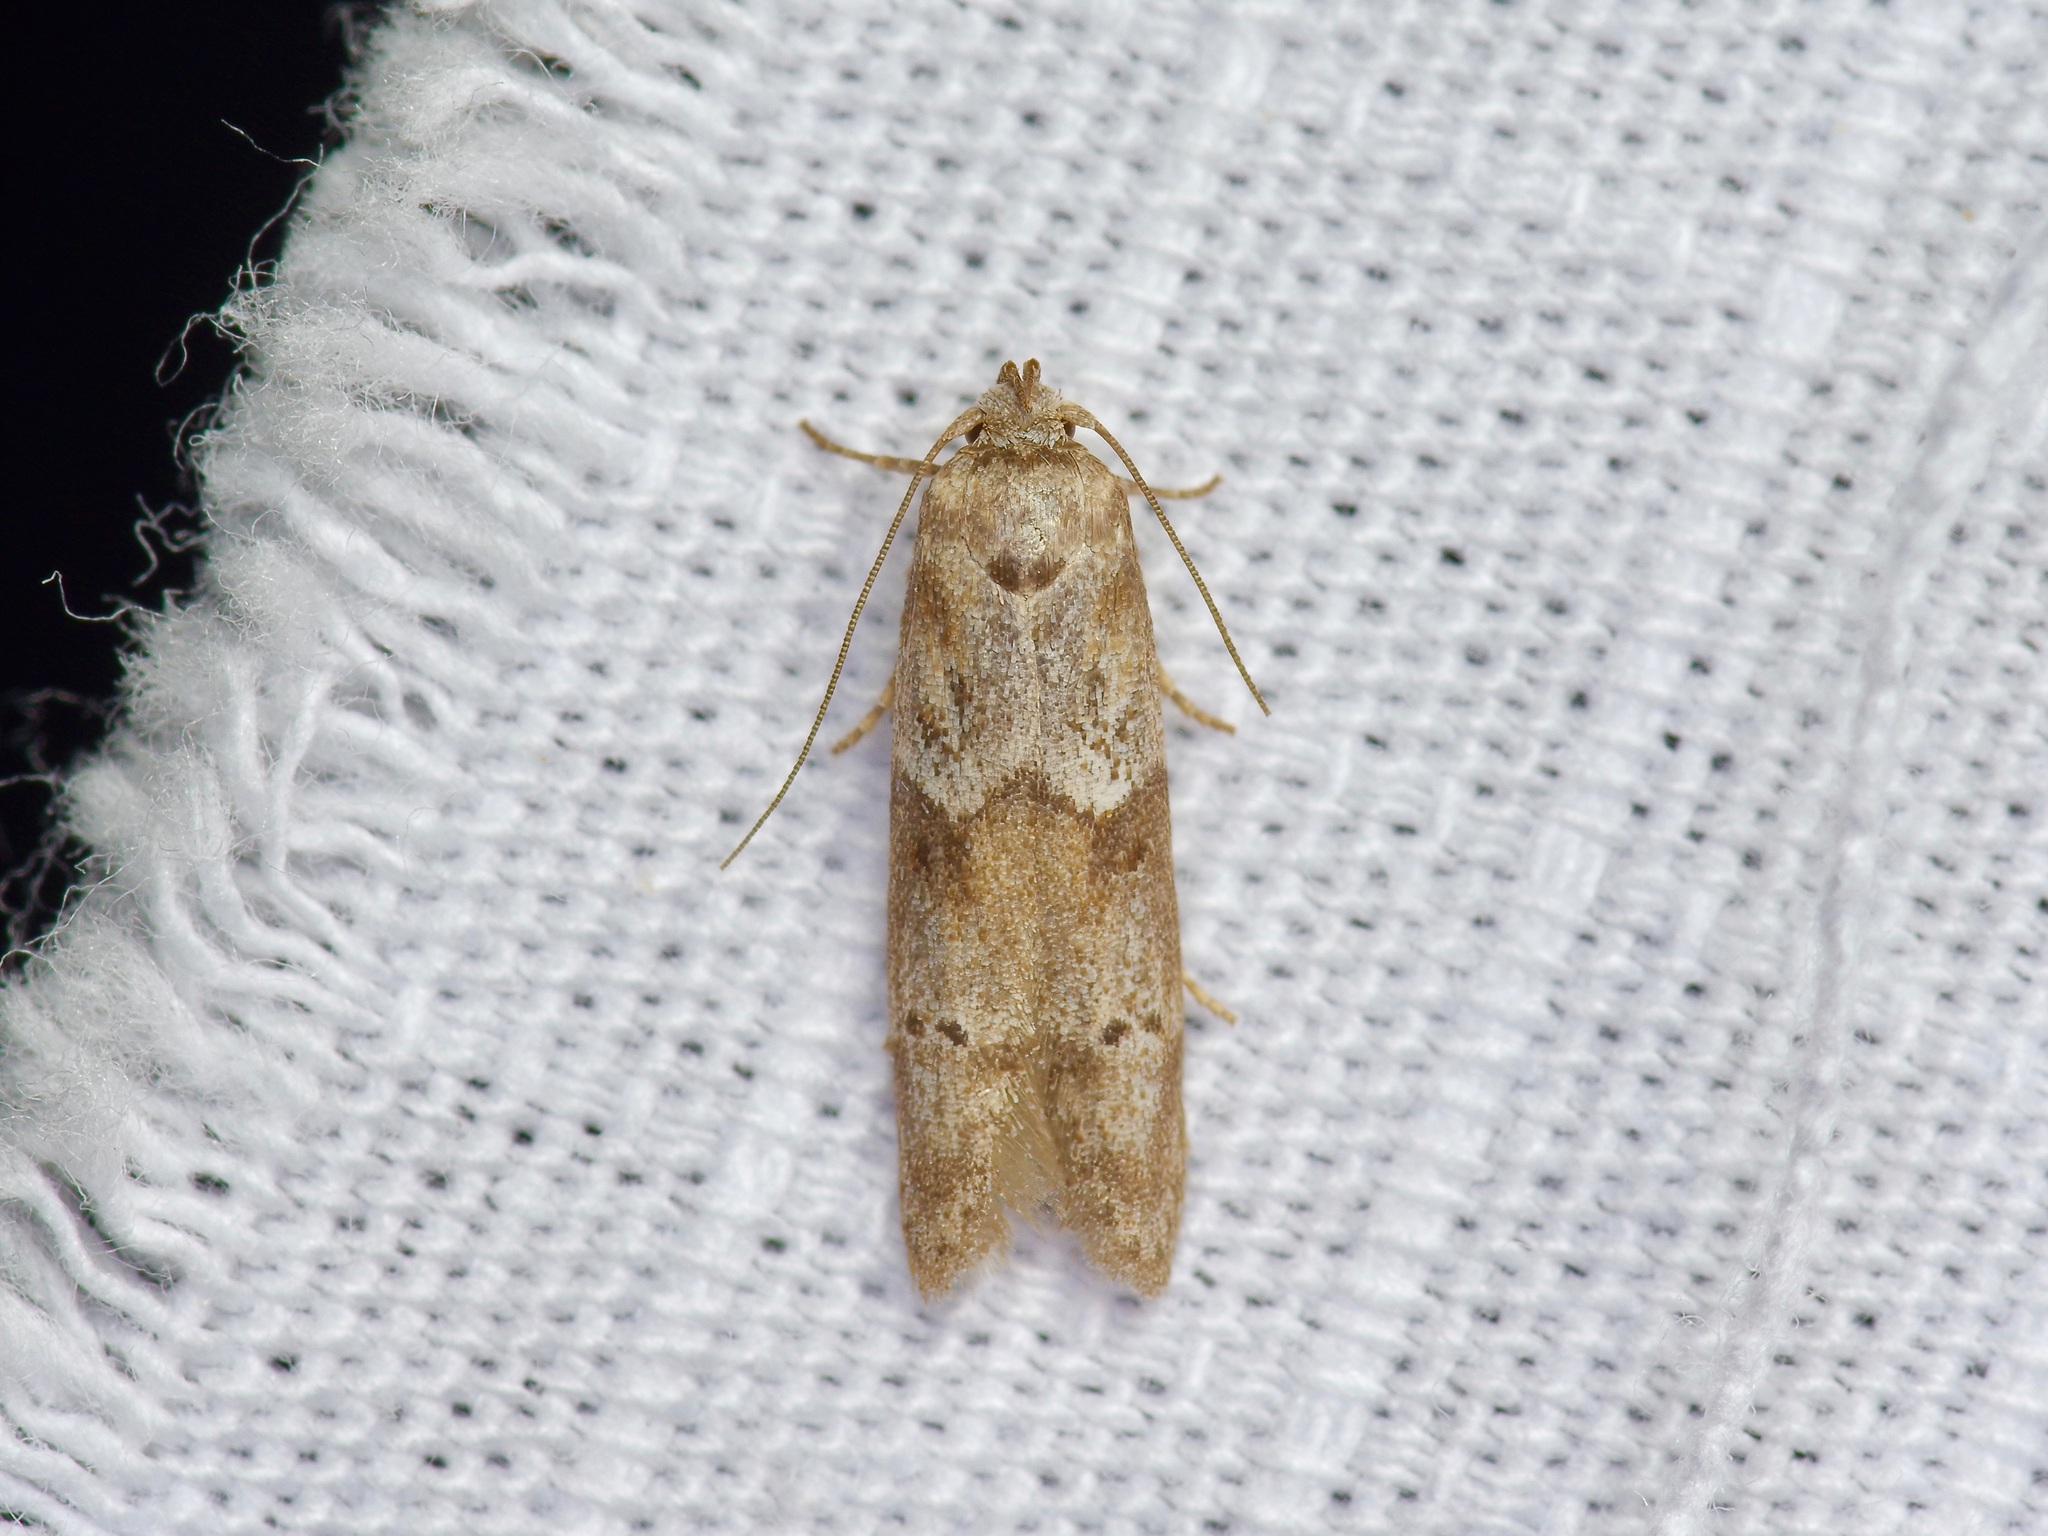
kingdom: Animalia
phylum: Arthropoda
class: Insecta
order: Lepidoptera
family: Blastobasidae
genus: Blastobasis
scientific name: Blastobasis glandulella
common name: Acorn moth
